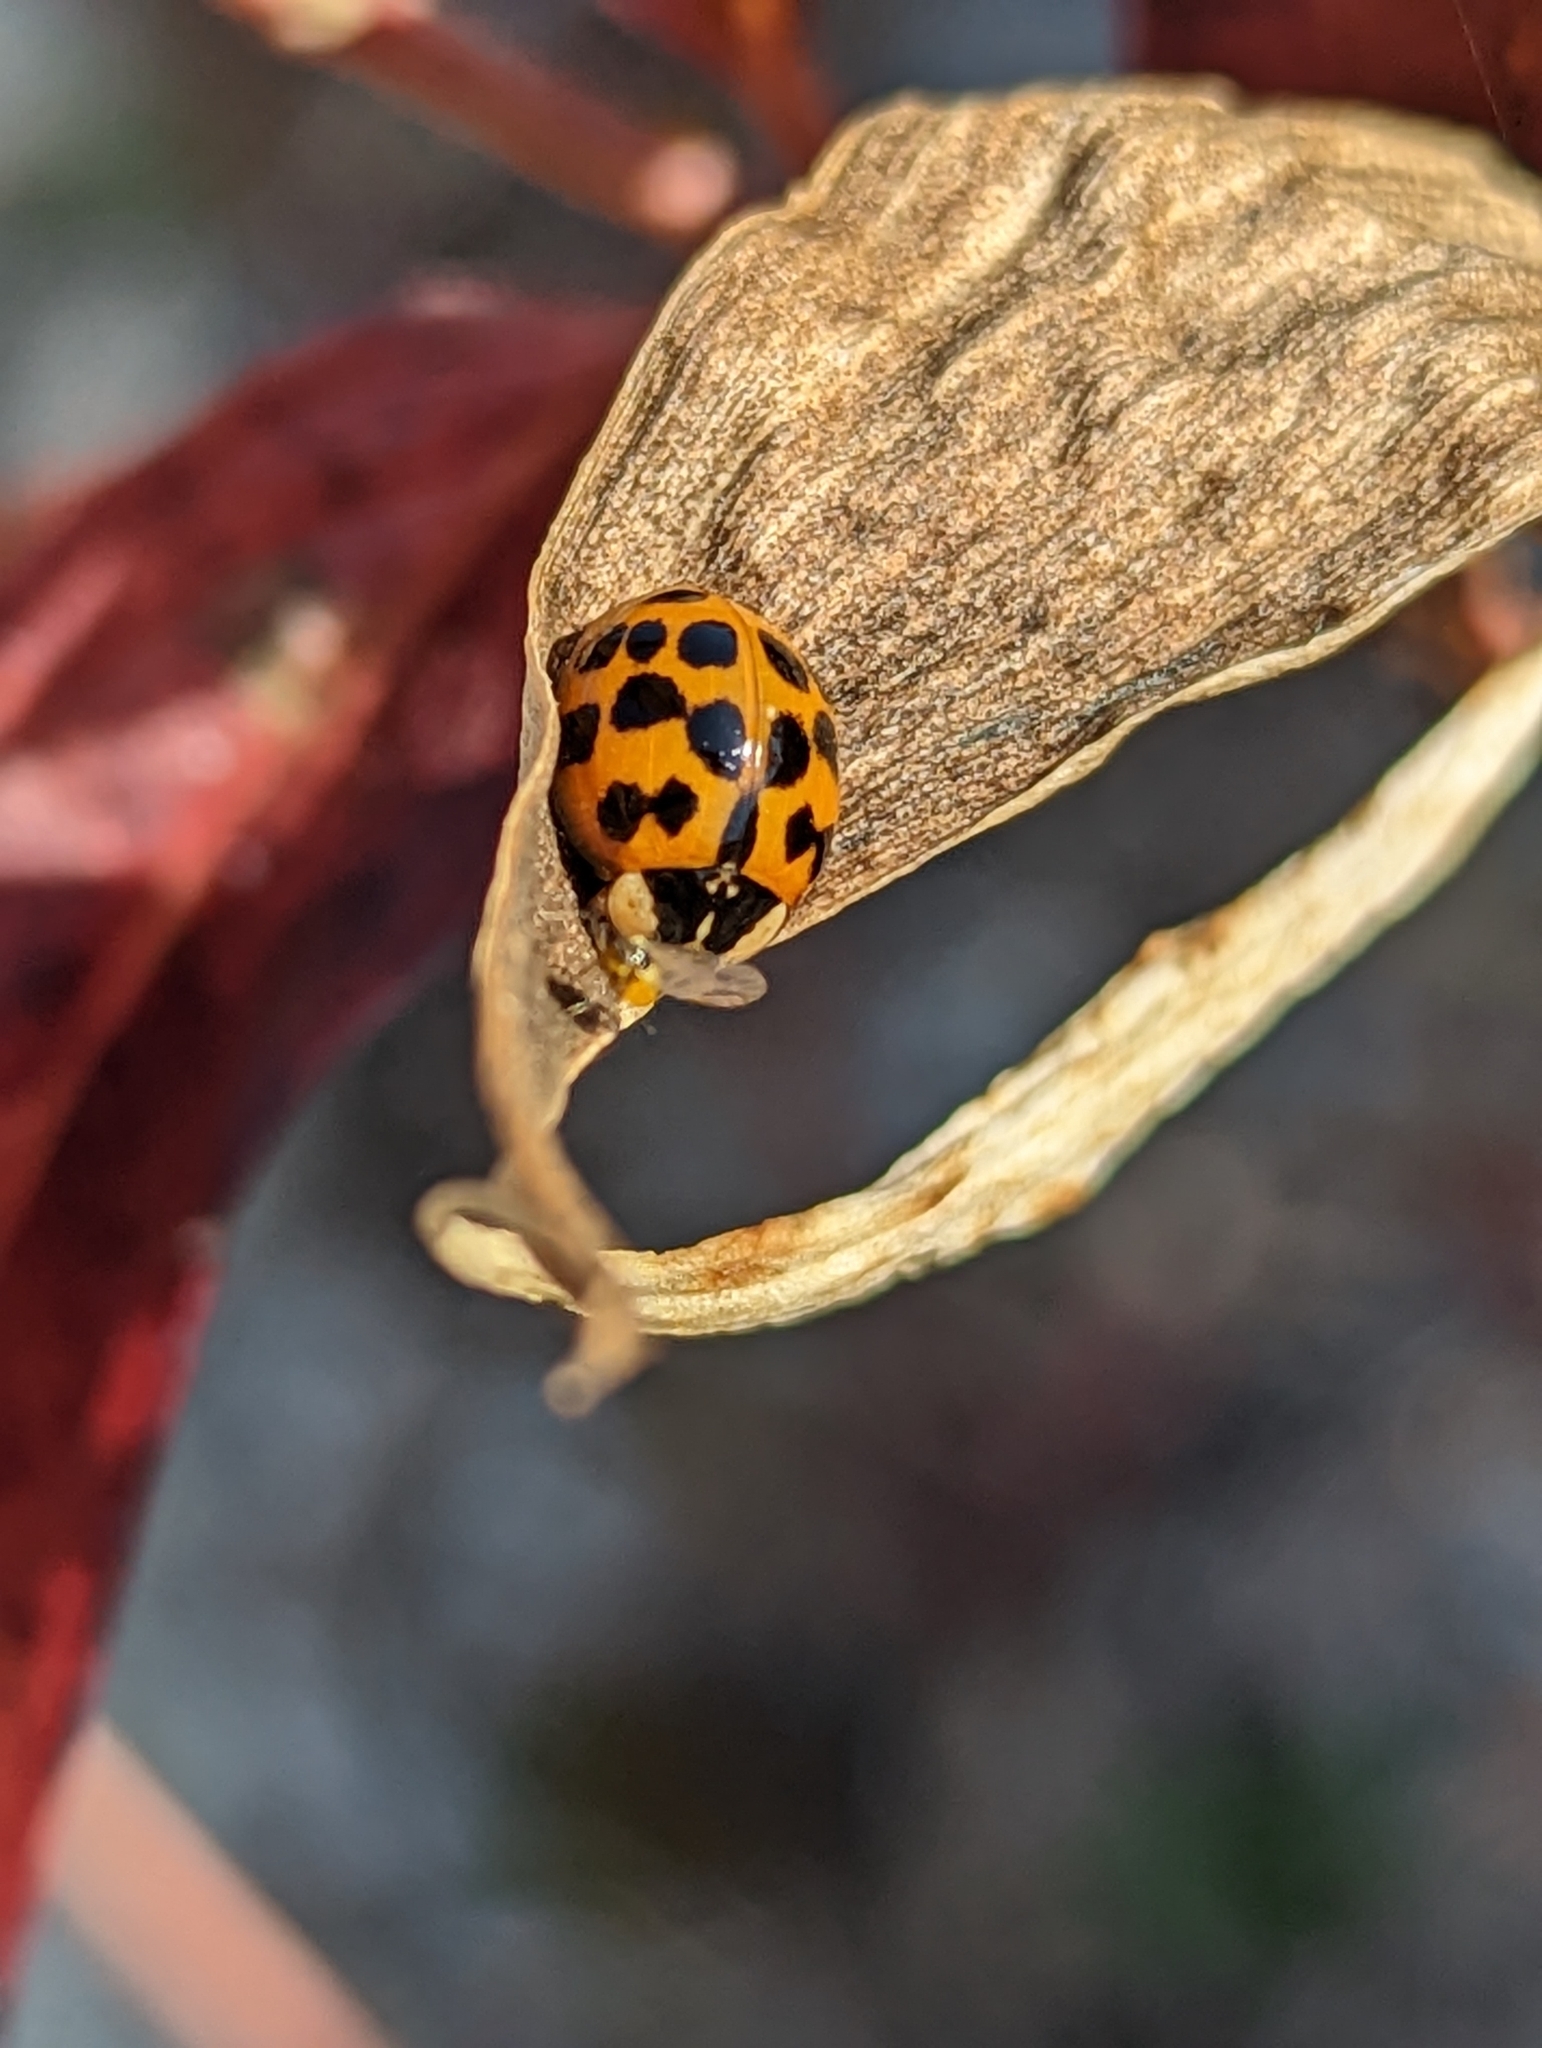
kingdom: Animalia
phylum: Arthropoda
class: Insecta
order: Coleoptera
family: Coccinellidae
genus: Harmonia
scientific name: Harmonia axyridis
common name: Harlequin ladybird
